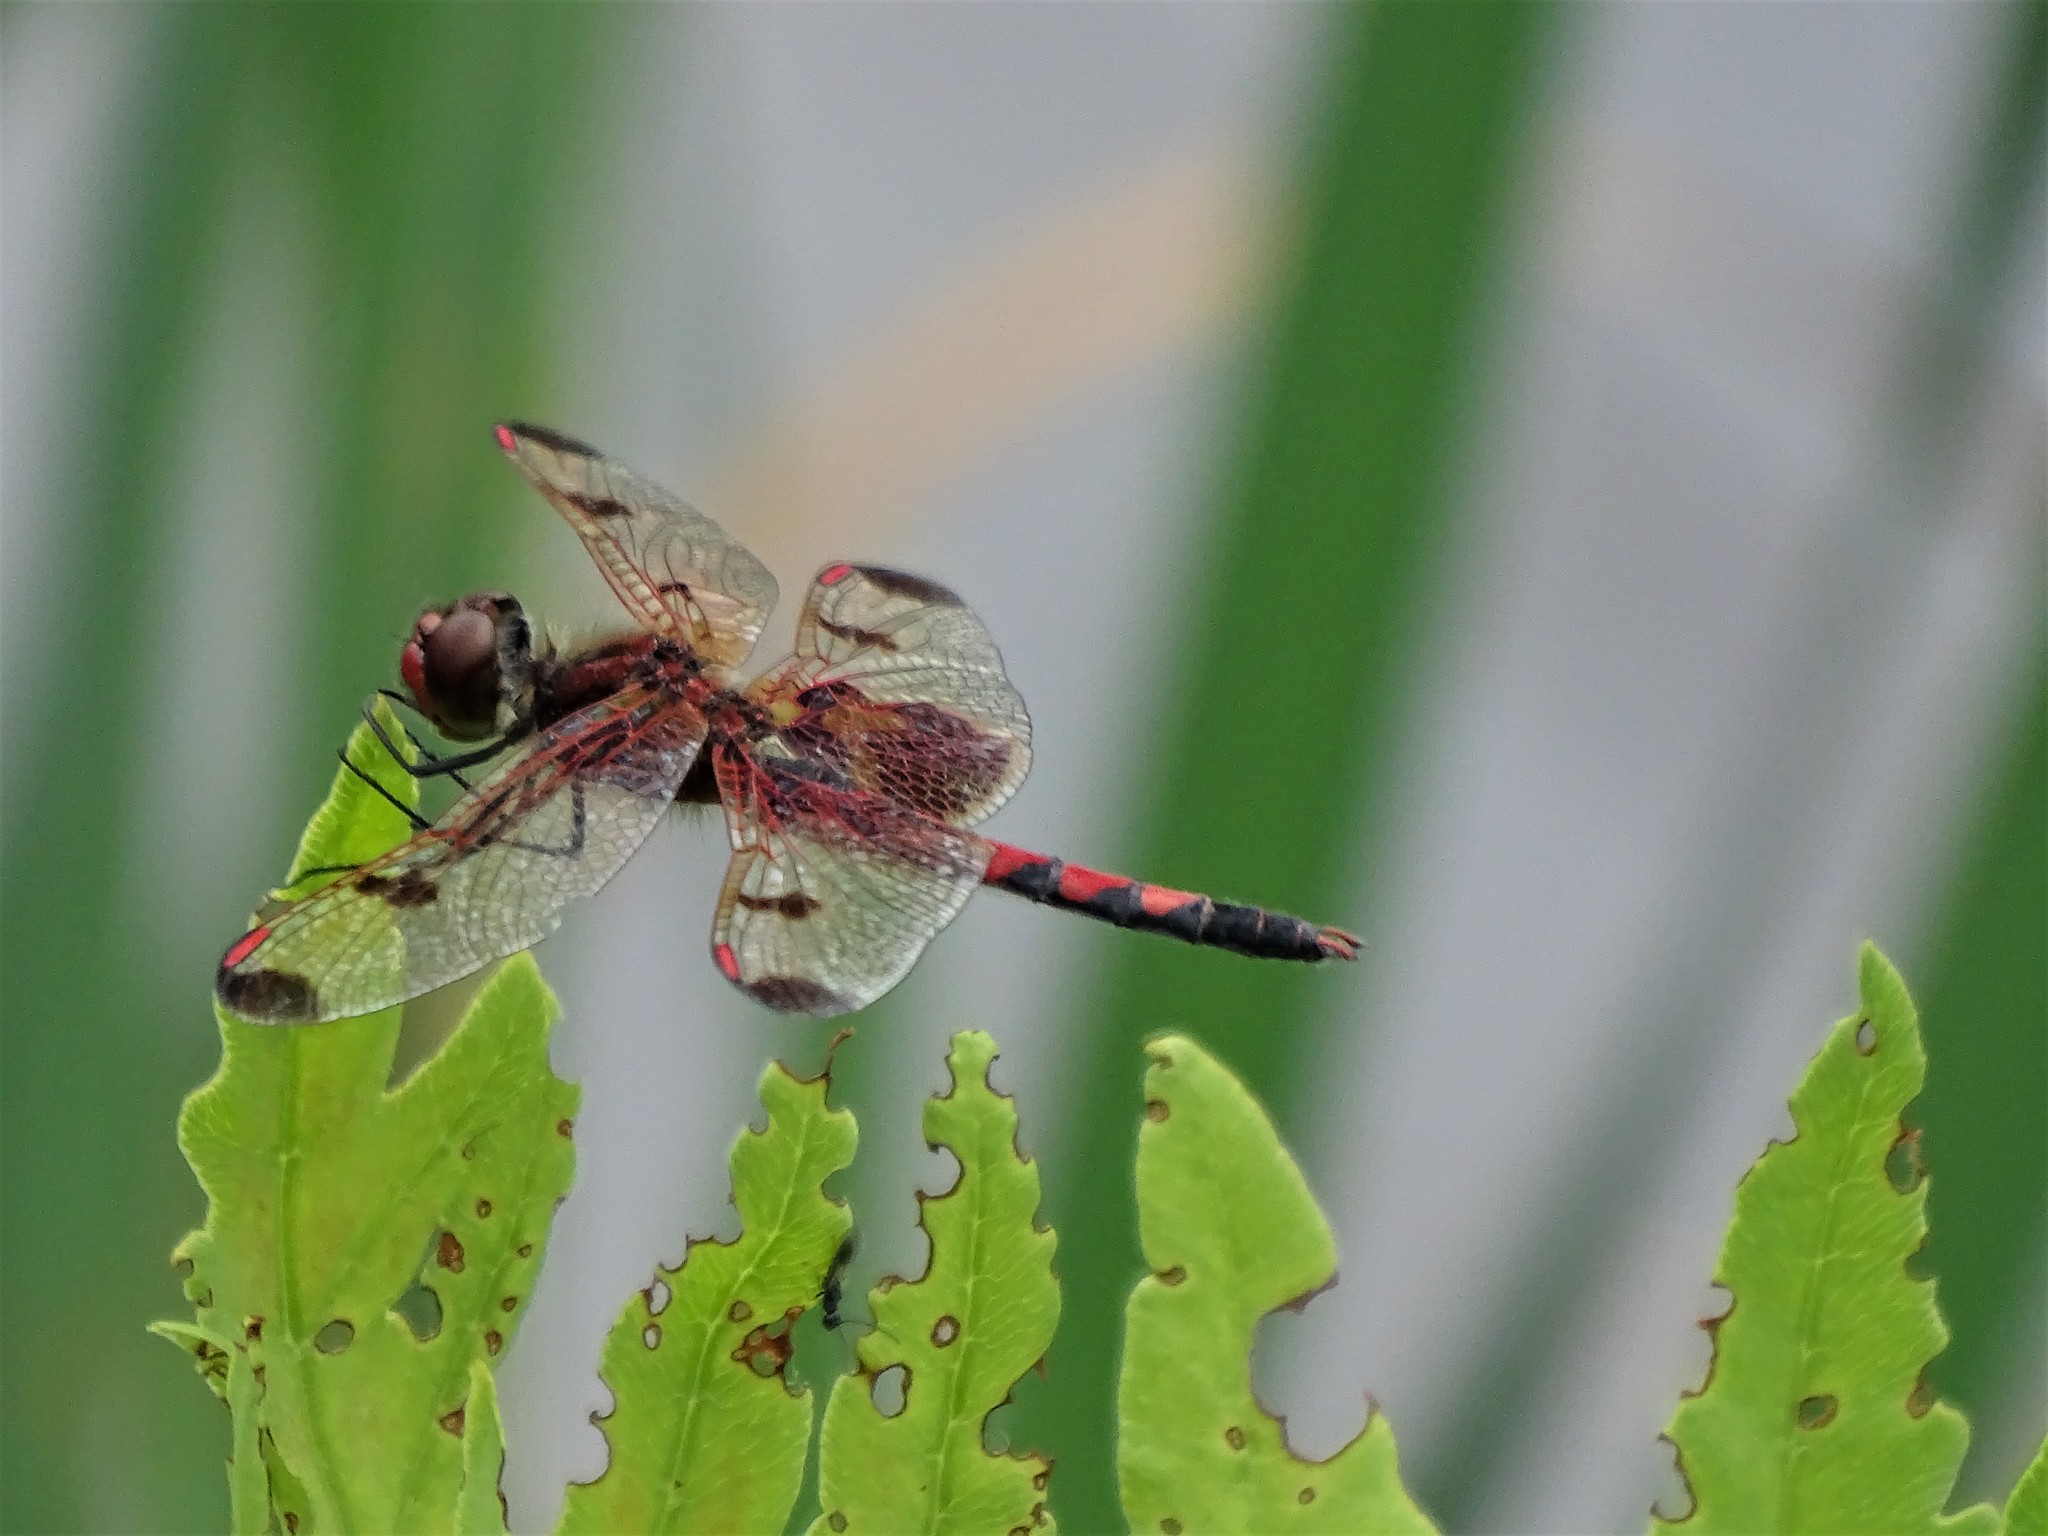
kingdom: Animalia
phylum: Arthropoda
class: Insecta
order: Odonata
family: Libellulidae
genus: Celithemis
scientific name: Celithemis elisa
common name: Calico pennant
